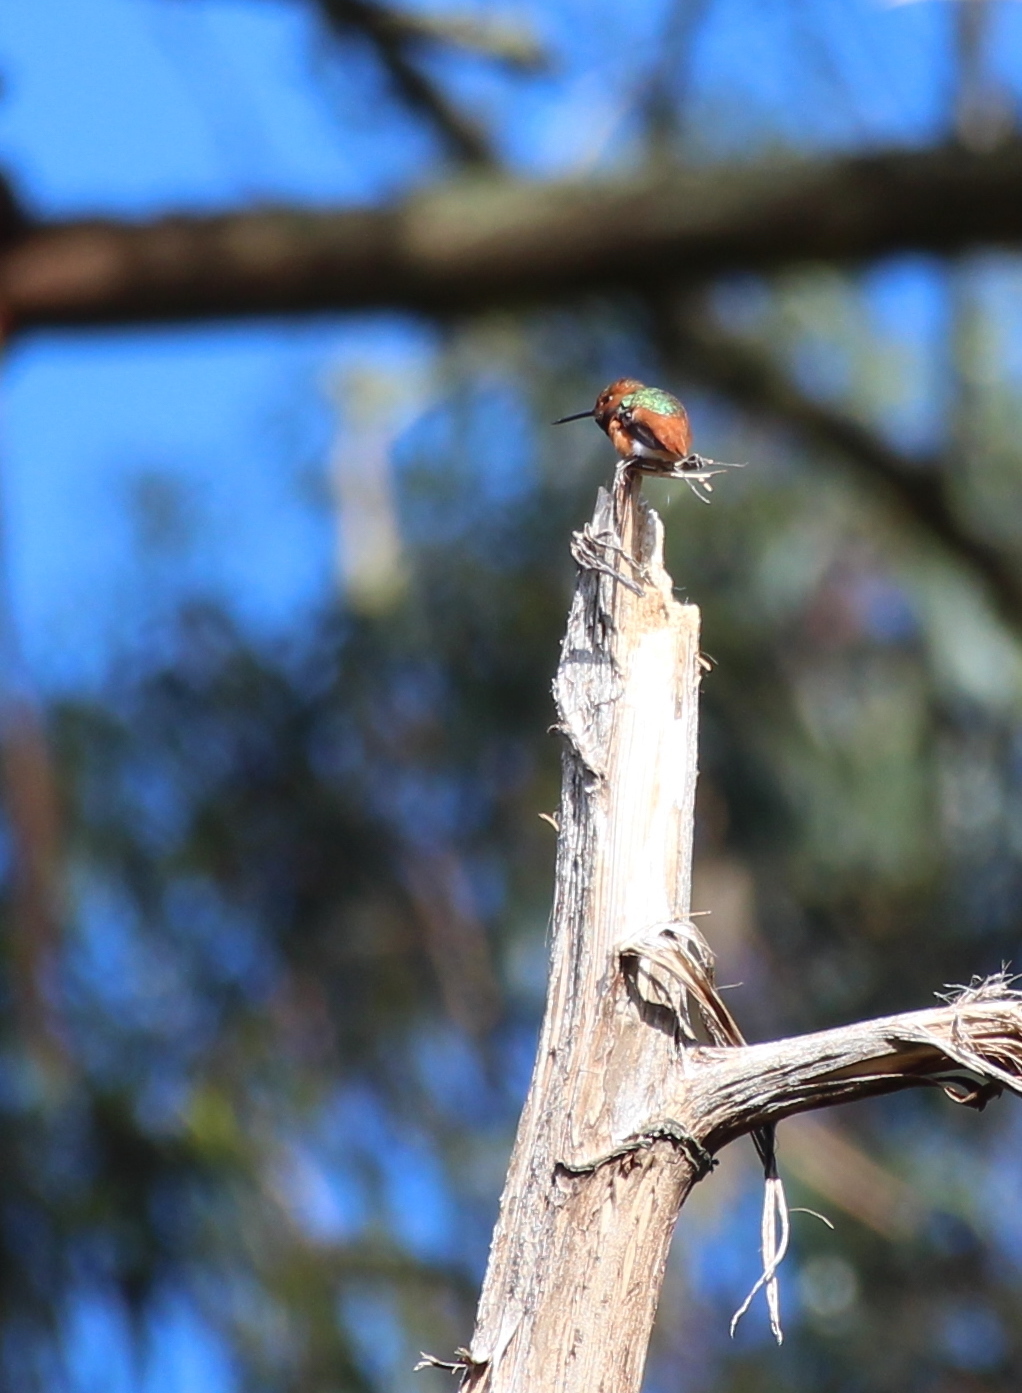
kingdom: Animalia
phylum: Chordata
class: Aves
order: Apodiformes
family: Trochilidae
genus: Selasphorus
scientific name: Selasphorus sasin
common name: Allen's hummingbird
